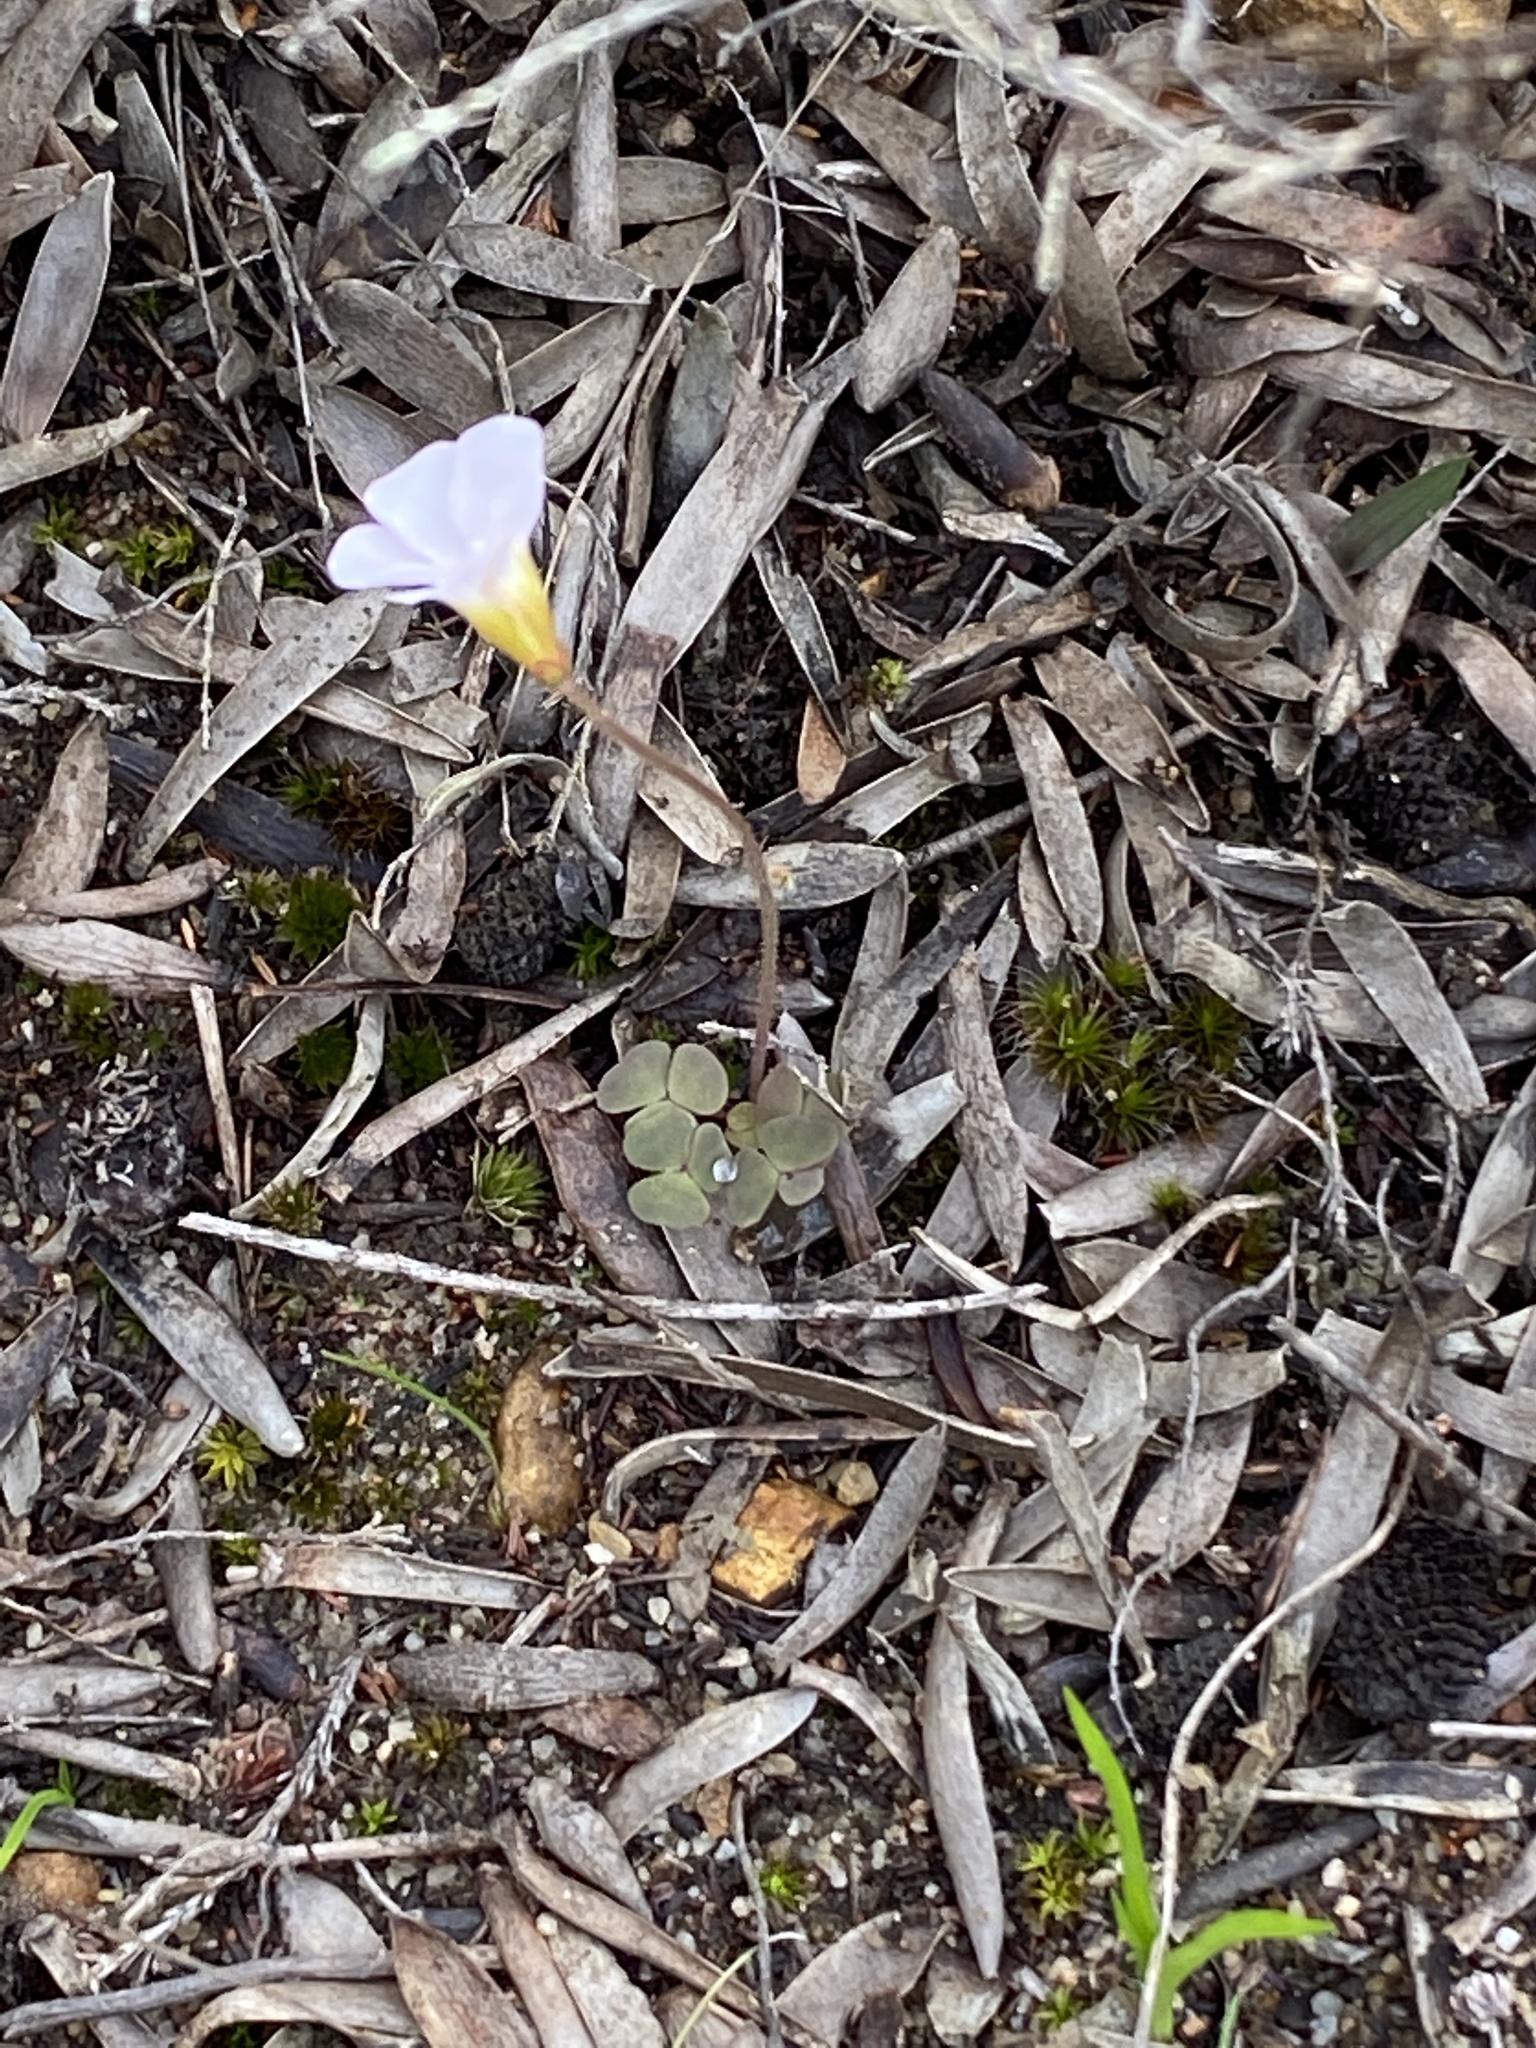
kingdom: Plantae
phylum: Tracheophyta
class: Magnoliopsida
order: Oxalidales
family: Oxalidaceae
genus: Oxalis
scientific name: Oxalis punctata
